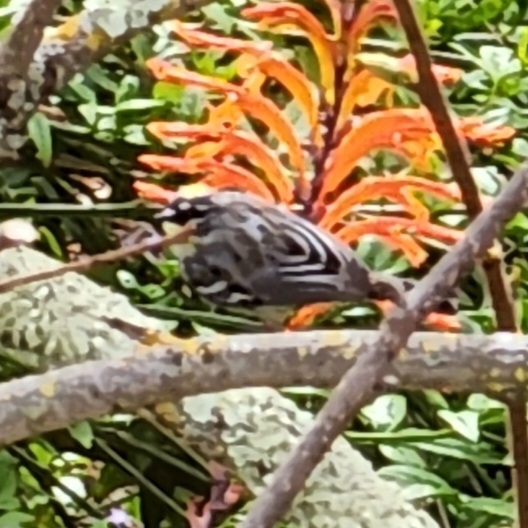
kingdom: Animalia
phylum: Chordata
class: Aves
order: Passeriformes
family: Parulidae
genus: Setophaga
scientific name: Setophaga coronata
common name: Myrtle warbler
